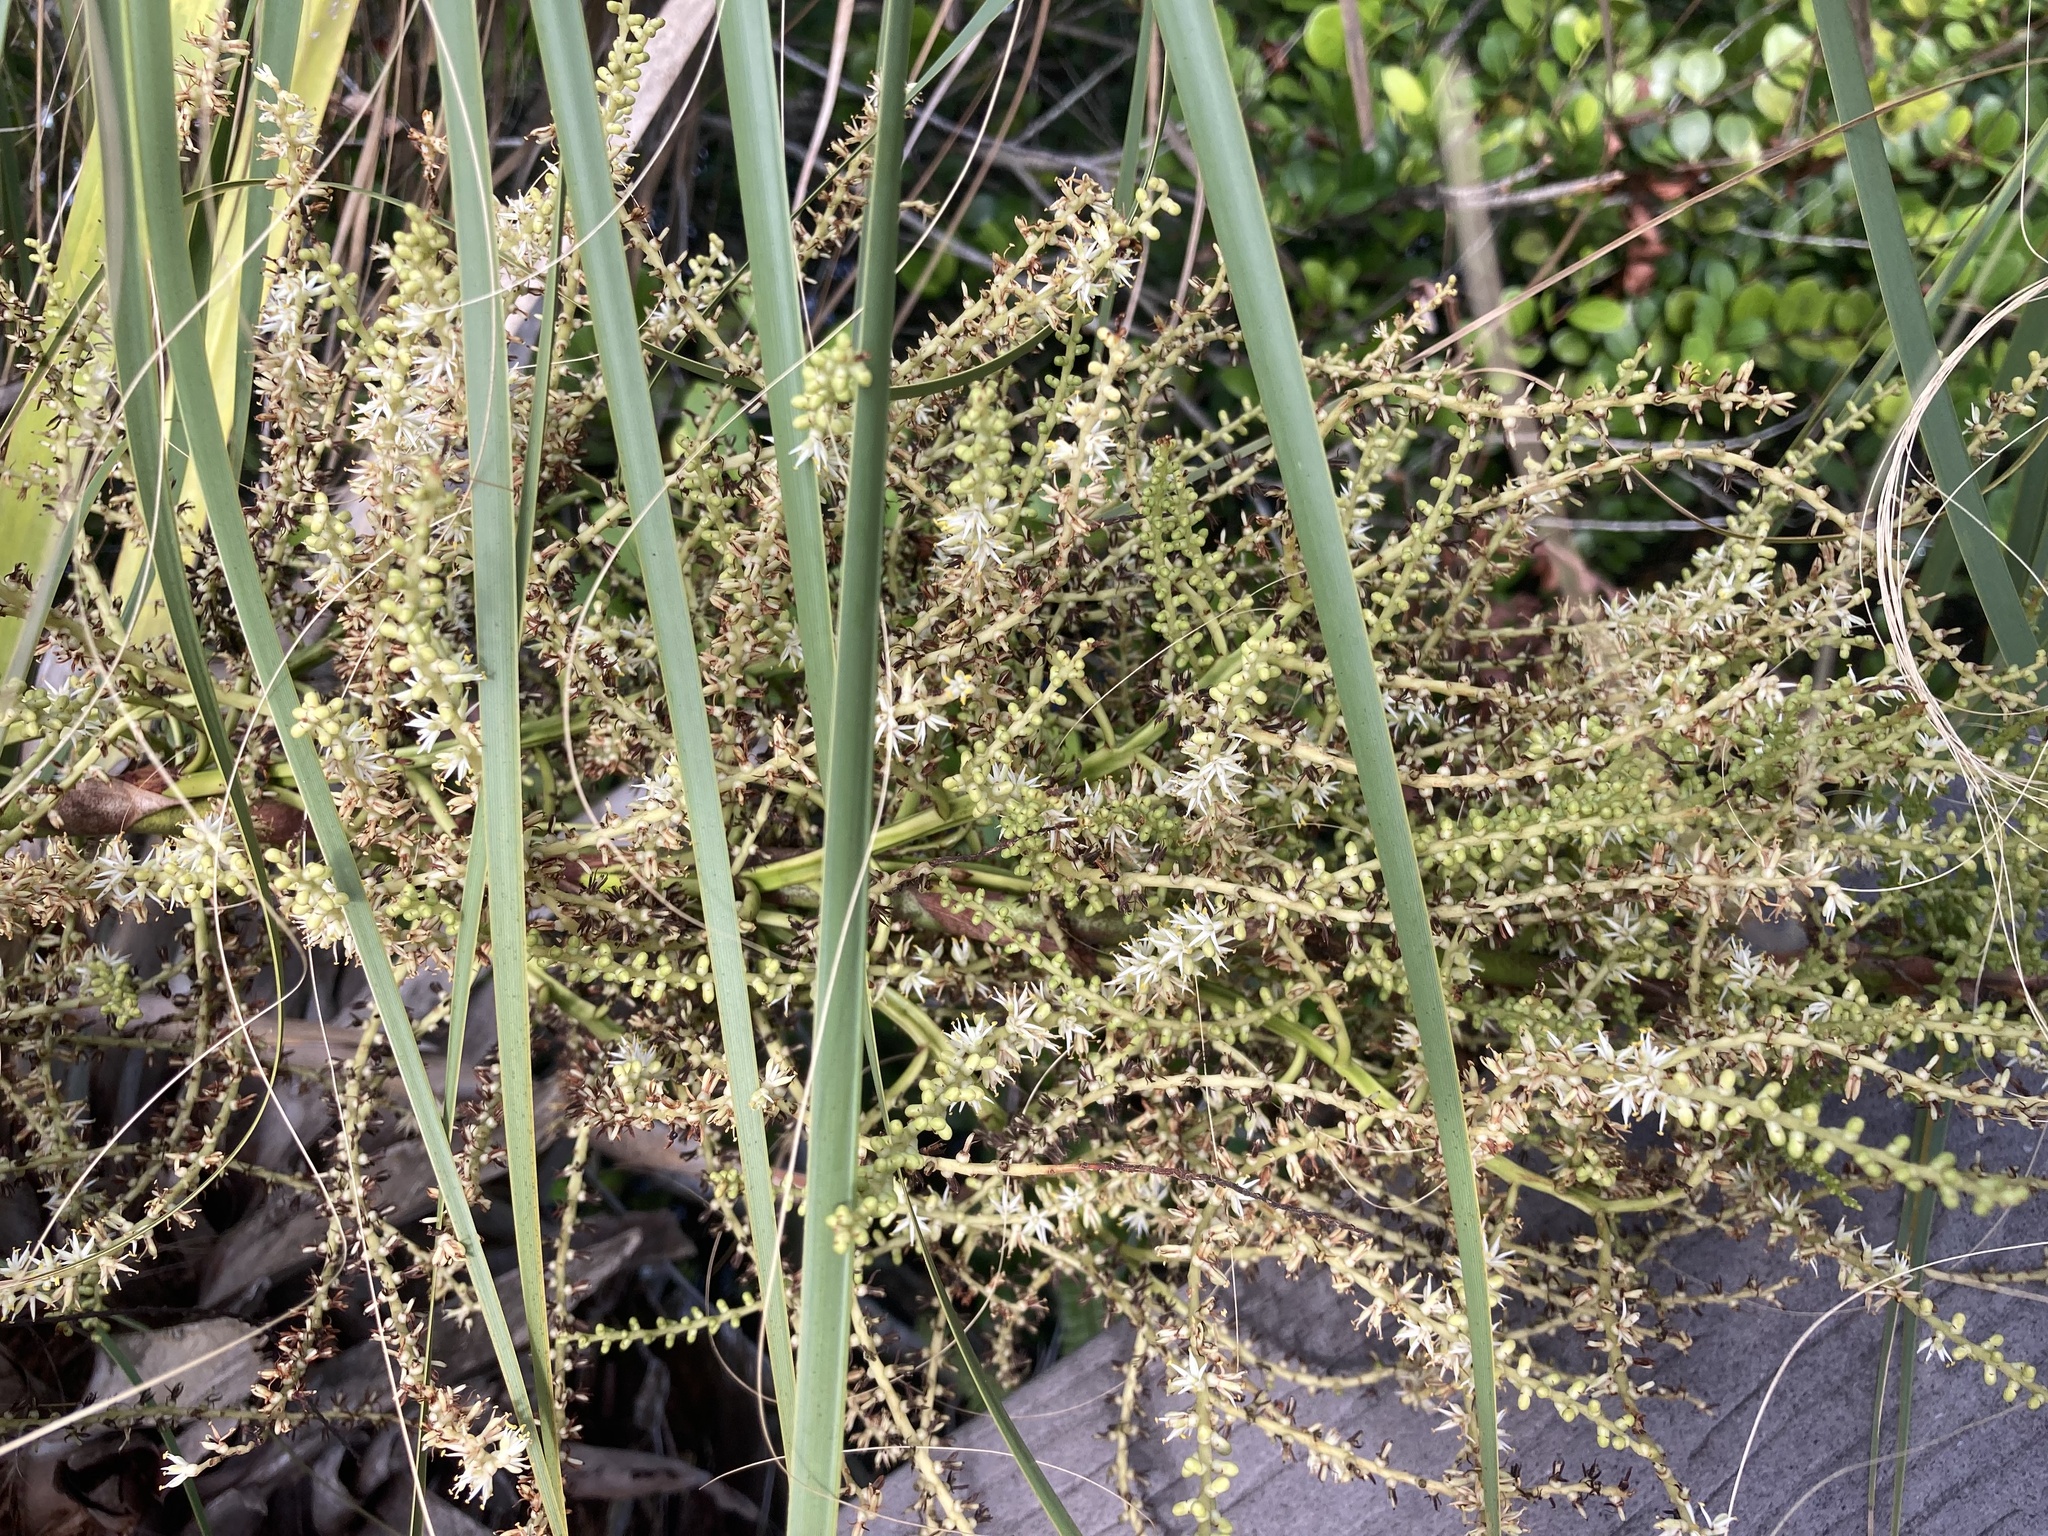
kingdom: Plantae
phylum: Tracheophyta
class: Liliopsida
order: Arecales
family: Arecaceae
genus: Sabal
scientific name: Sabal palmetto
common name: Blue palmetto
